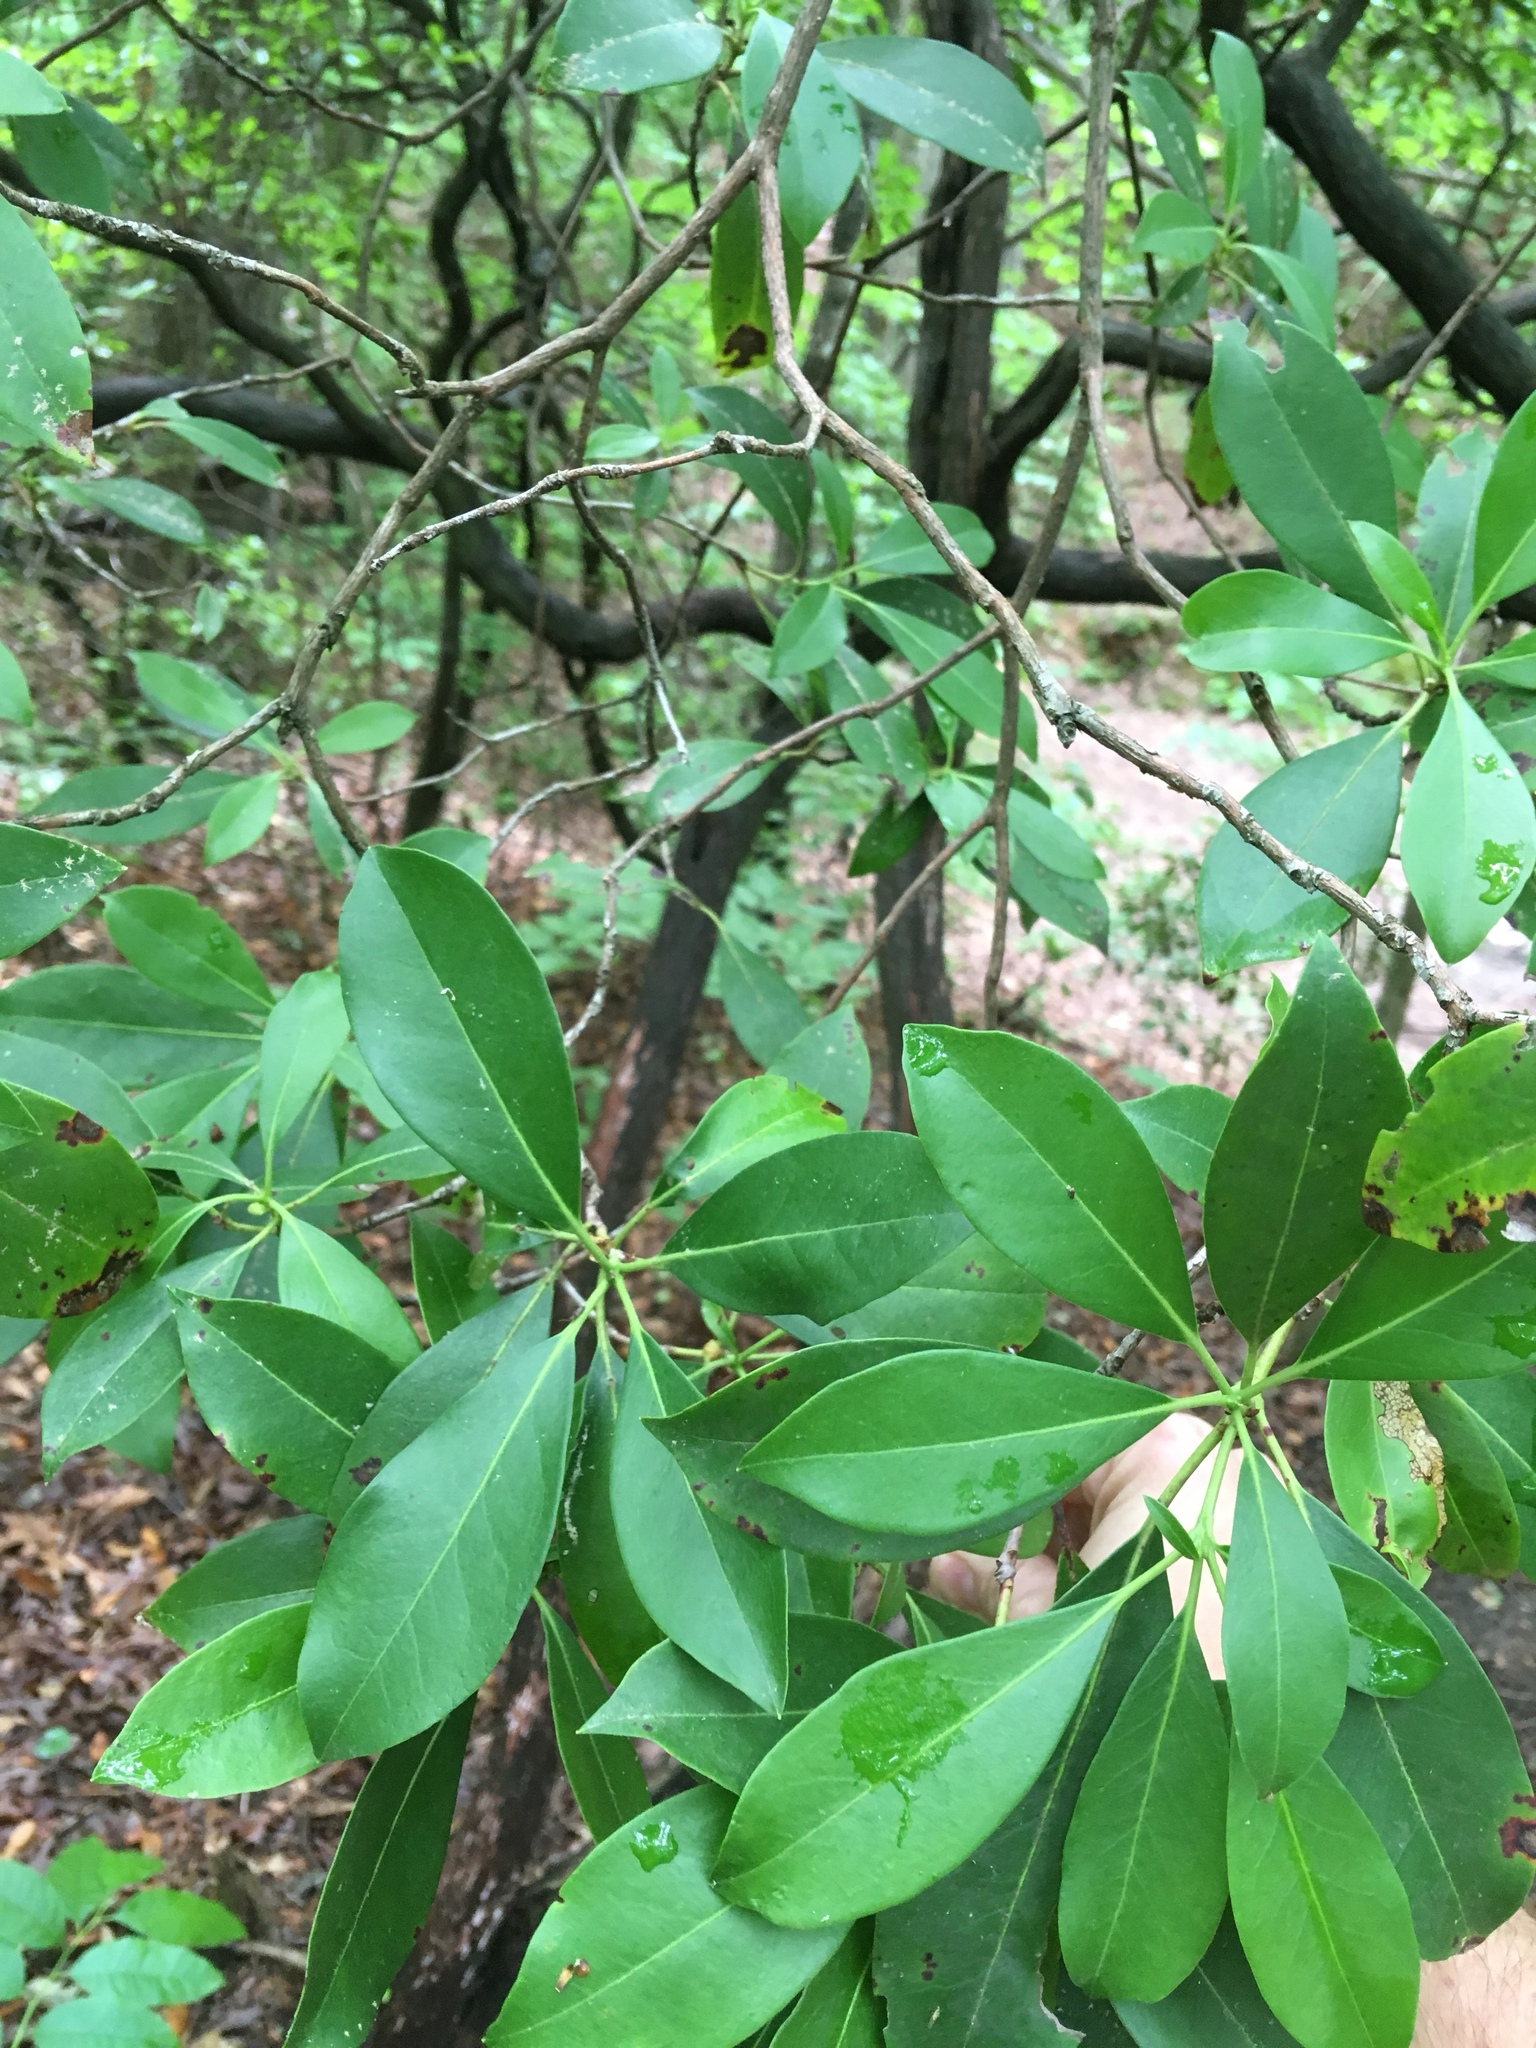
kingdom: Plantae
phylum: Tracheophyta
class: Magnoliopsida
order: Ericales
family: Ericaceae
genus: Kalmia
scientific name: Kalmia latifolia
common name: Mountain-laurel
